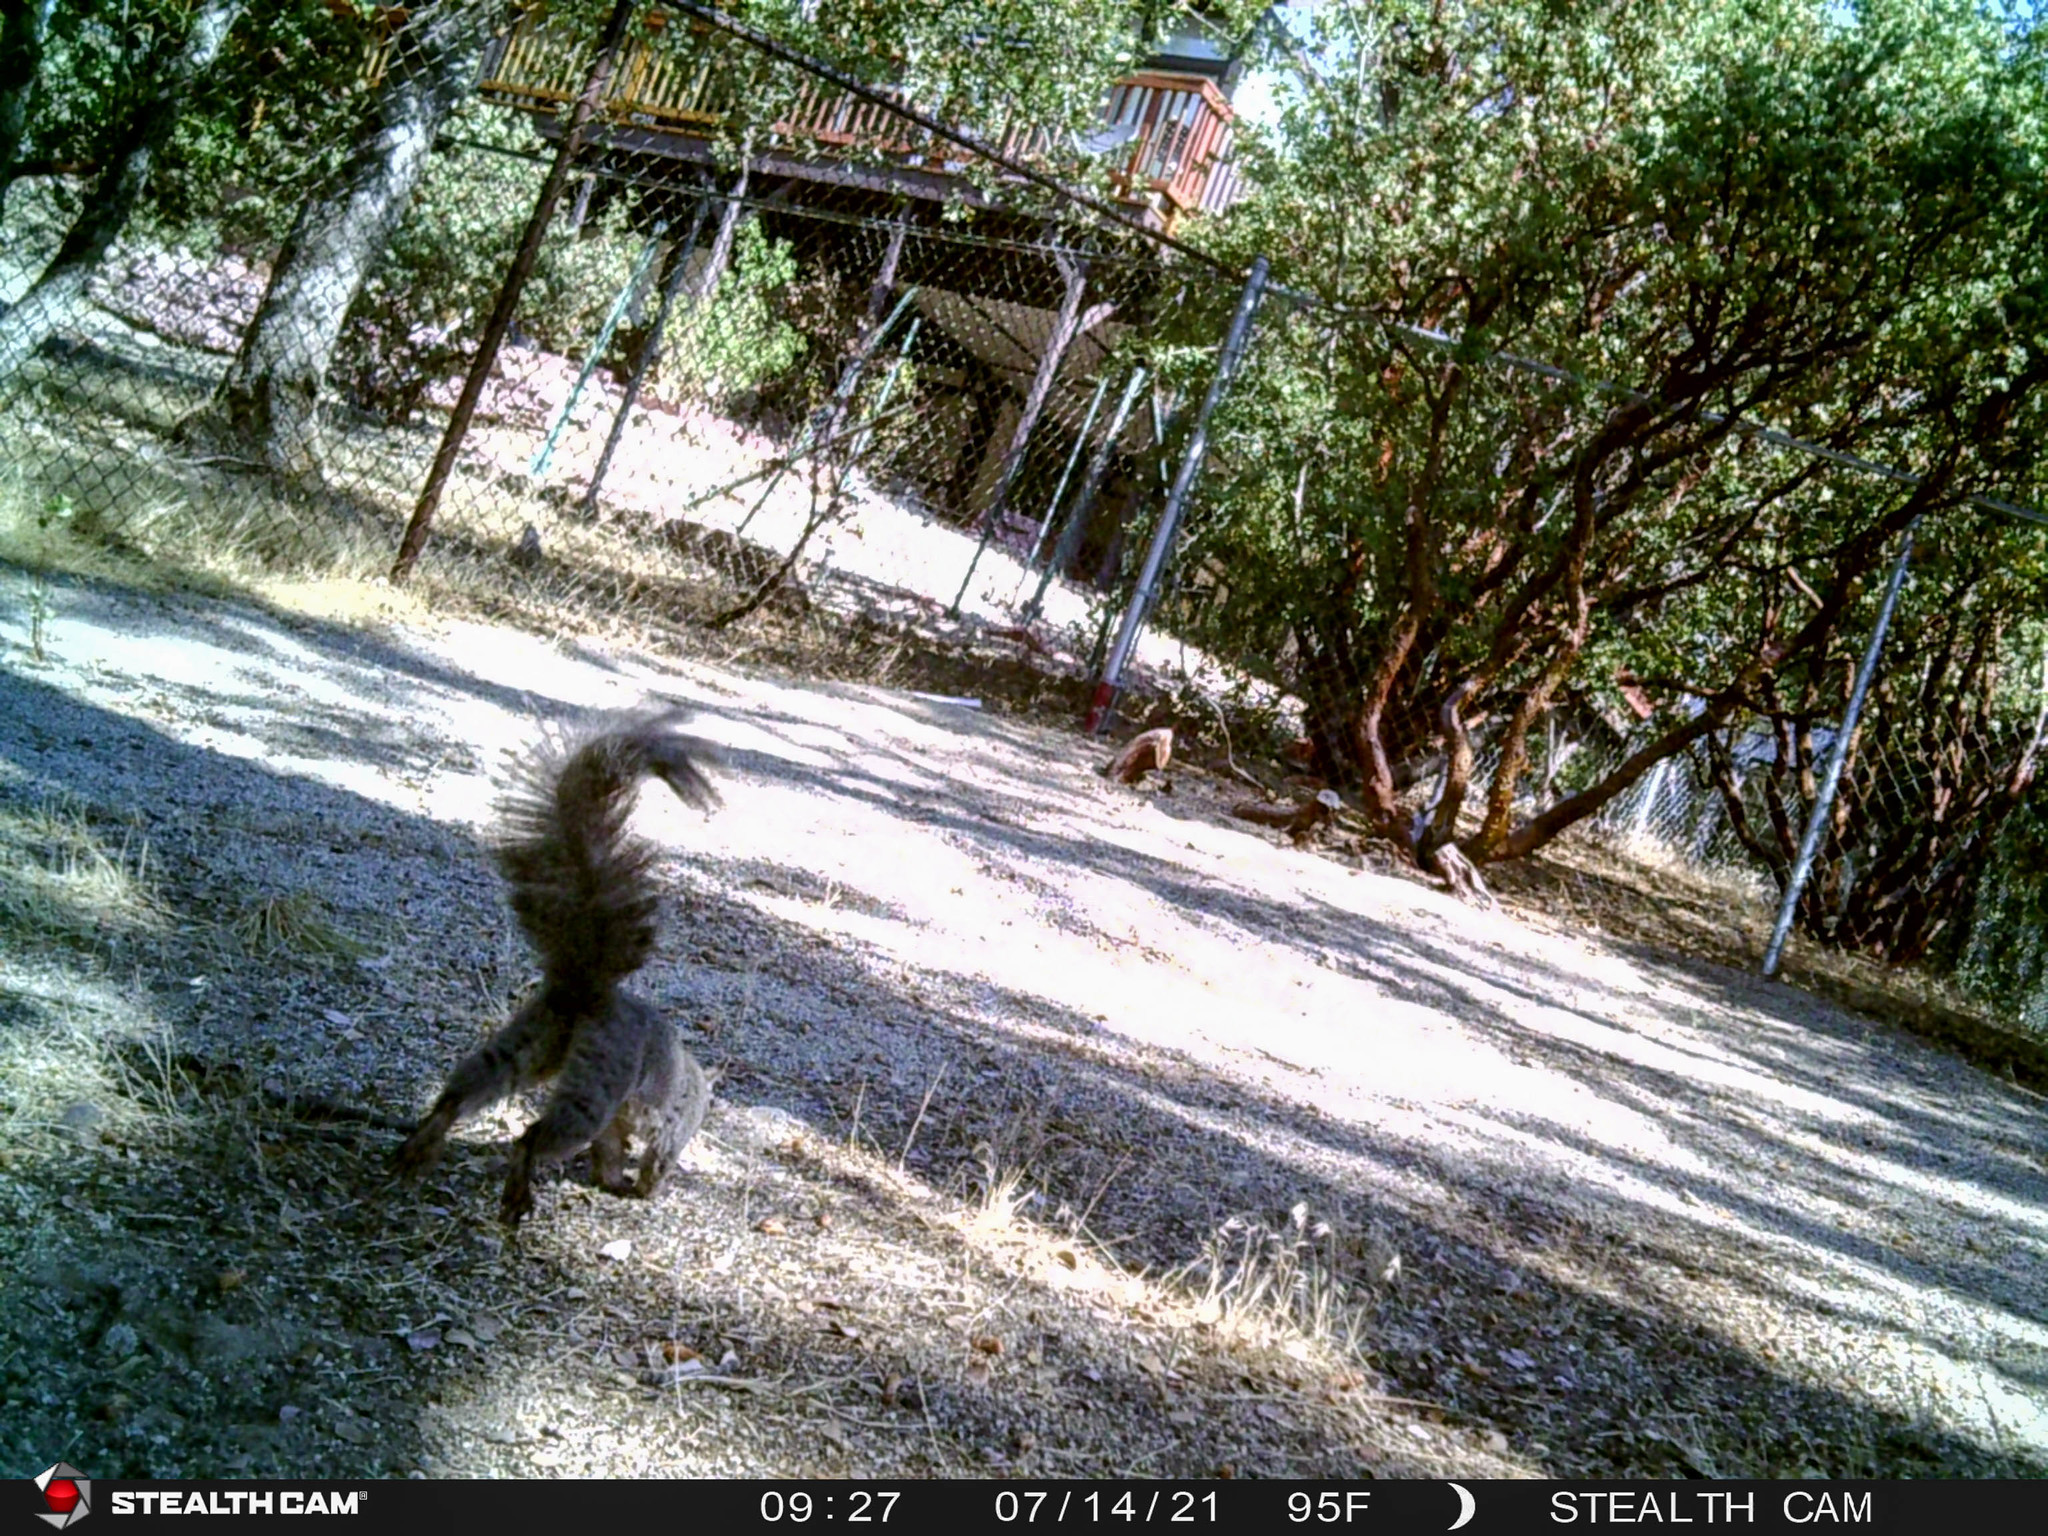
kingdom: Animalia
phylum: Chordata
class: Mammalia
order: Rodentia
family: Sciuridae
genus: Sciurus
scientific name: Sciurus griseus
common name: Western gray squirrel
